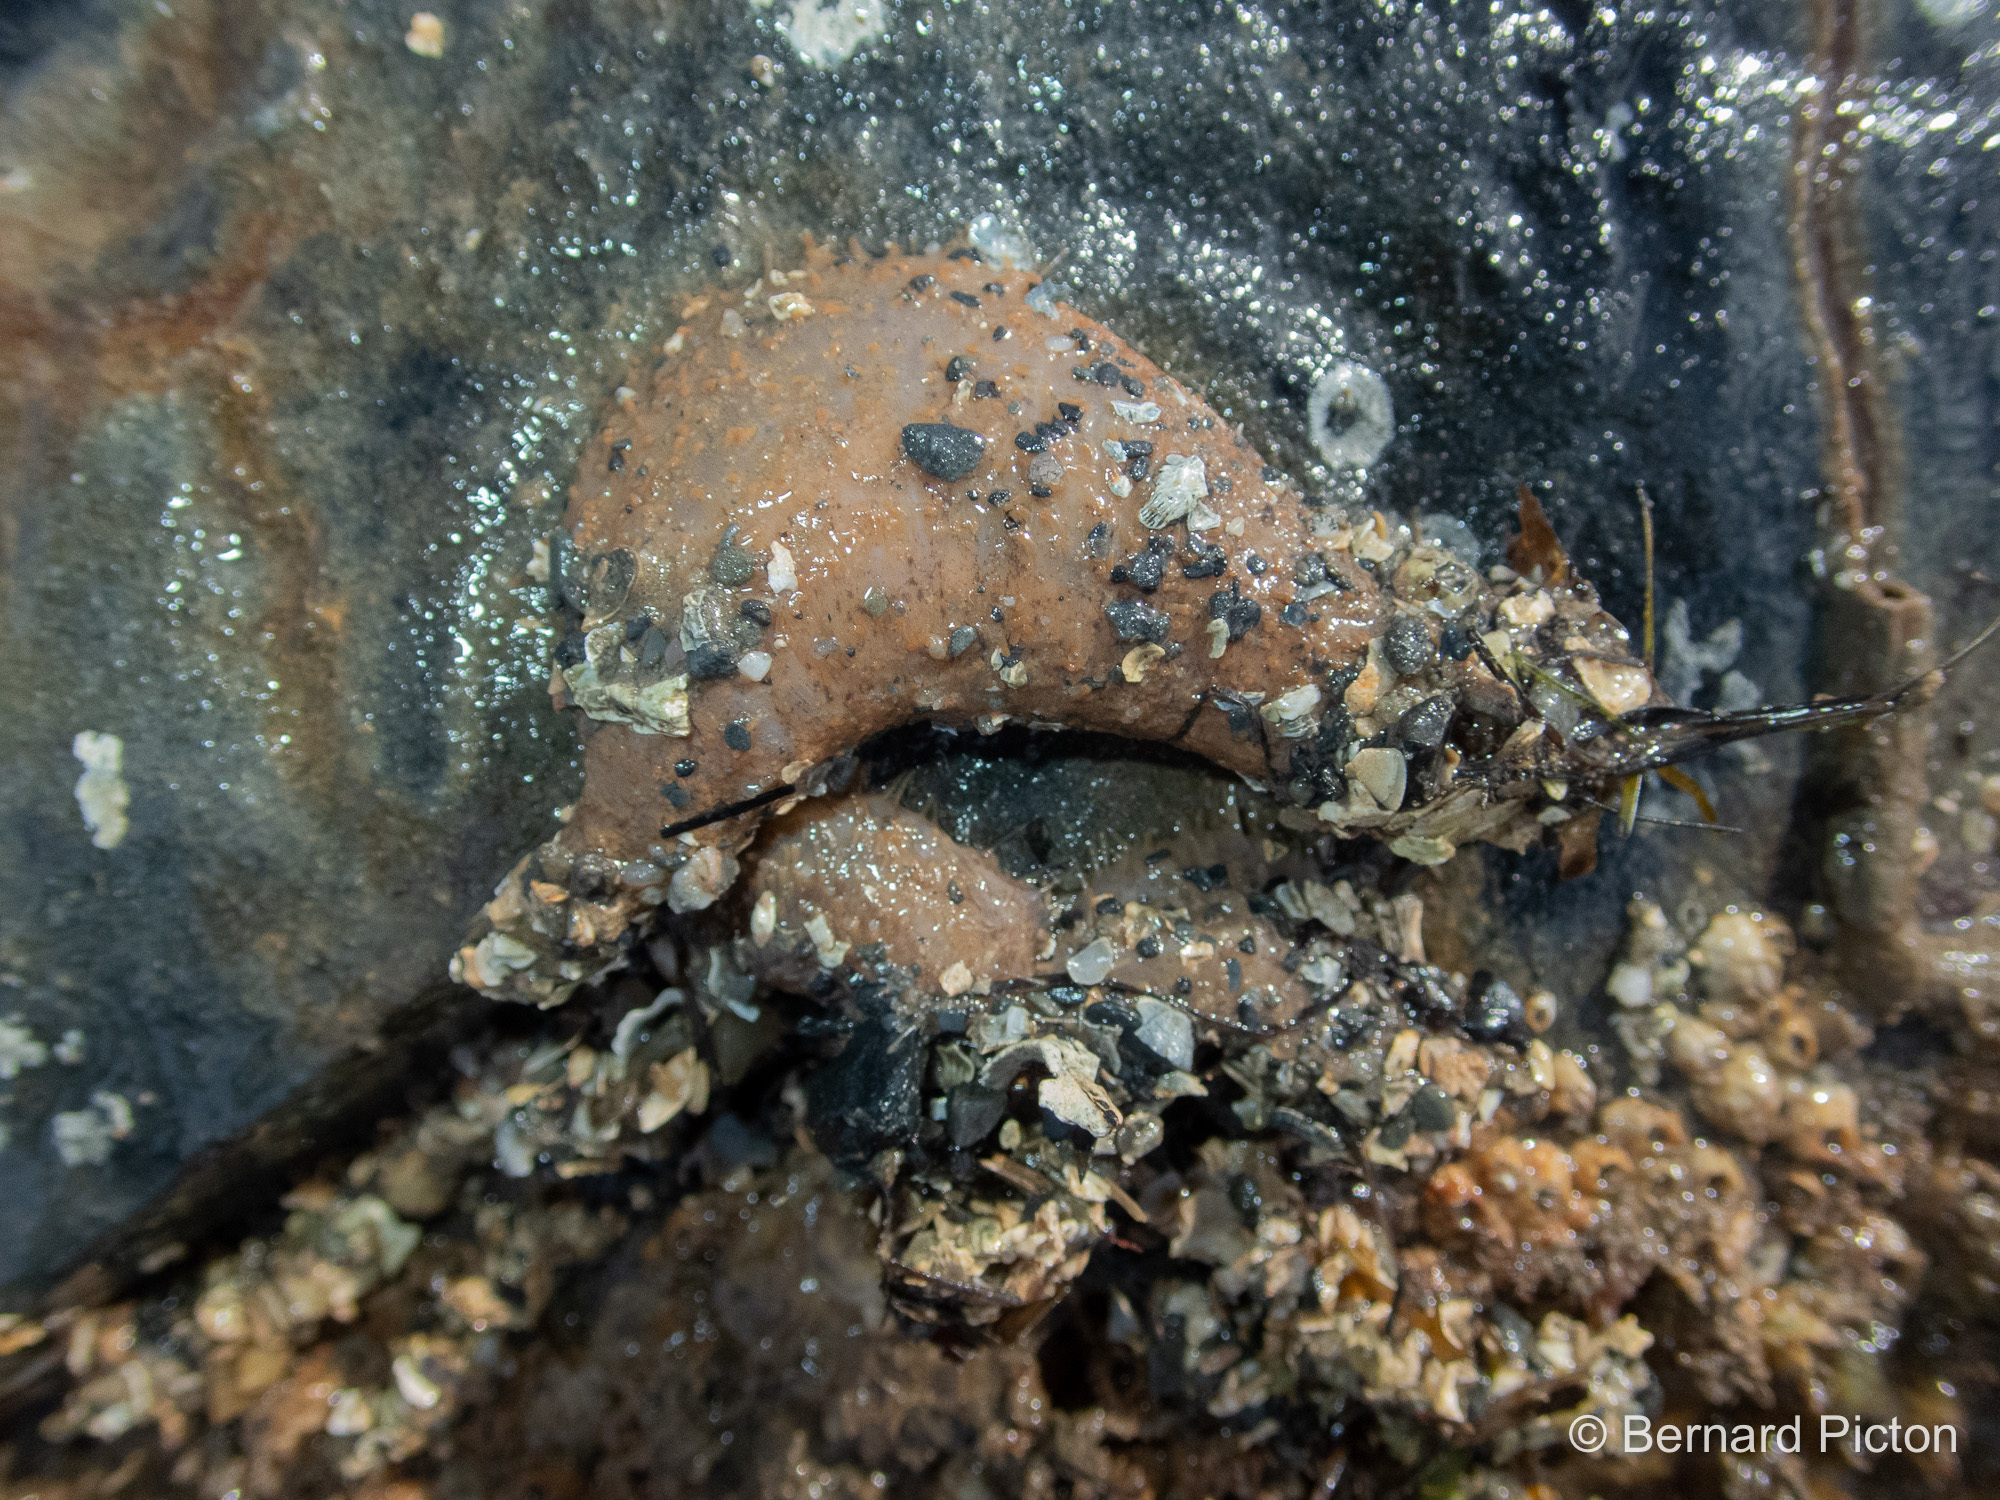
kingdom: Animalia
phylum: Echinodermata
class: Holothuroidea
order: Dendrochirotida
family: Phyllophoridae
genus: Thyone
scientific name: Thyone roscovita
